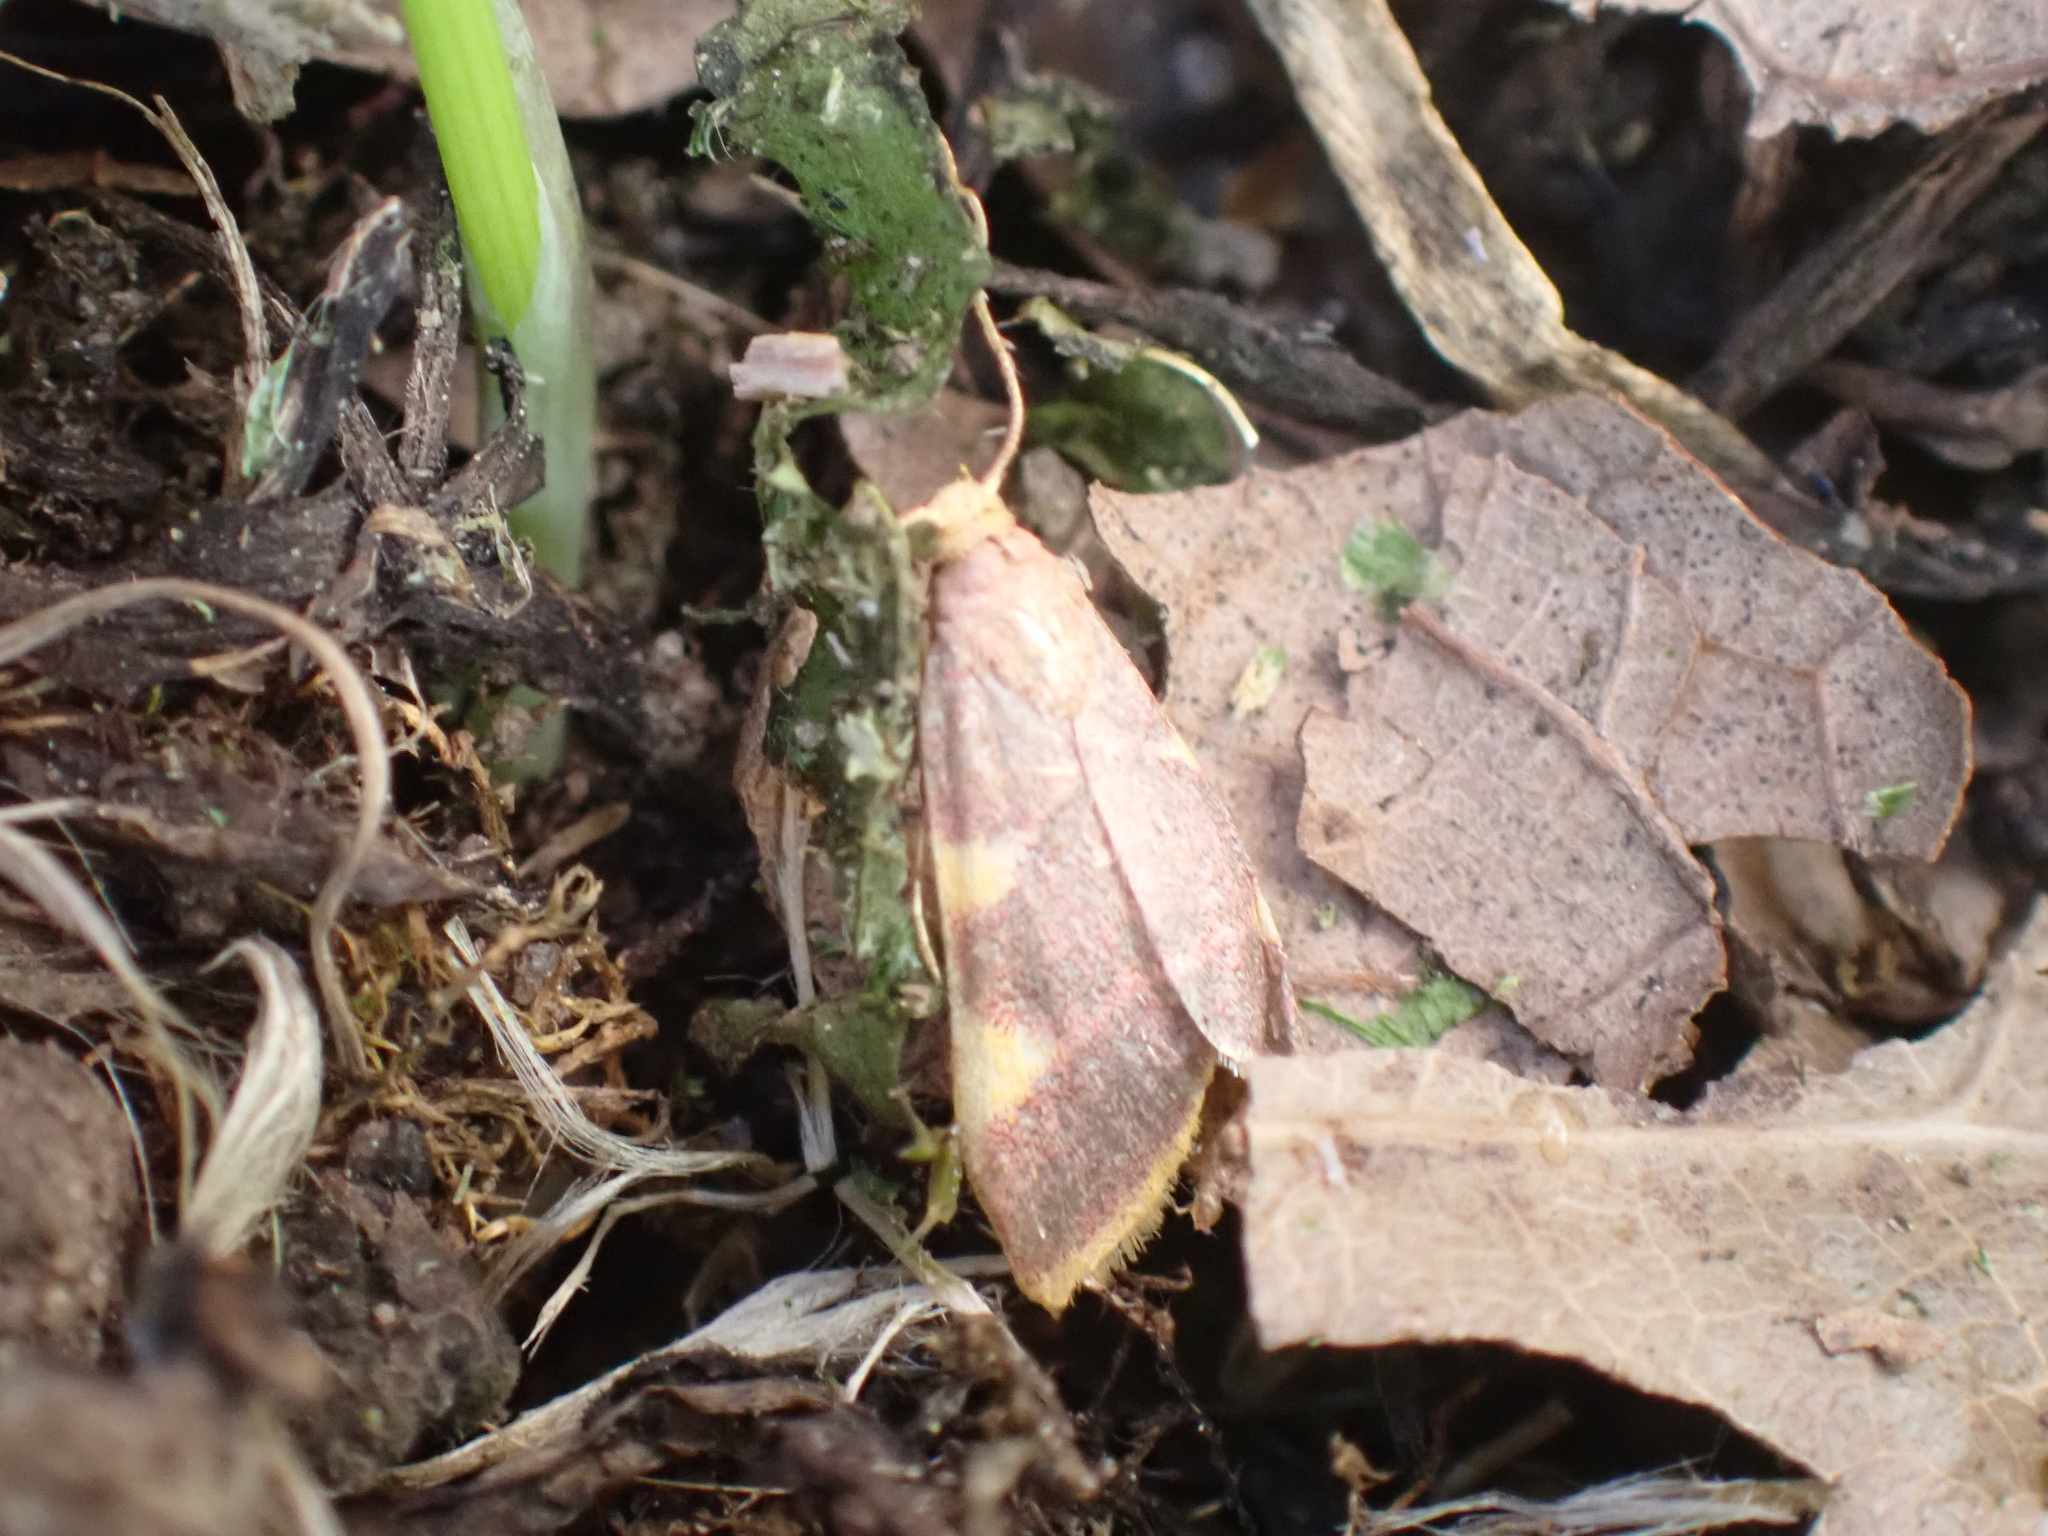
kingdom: Animalia
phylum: Arthropoda
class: Insecta
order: Lepidoptera
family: Pyralidae
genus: Hypsopygia
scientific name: Hypsopygia costalis
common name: Gold triangle
